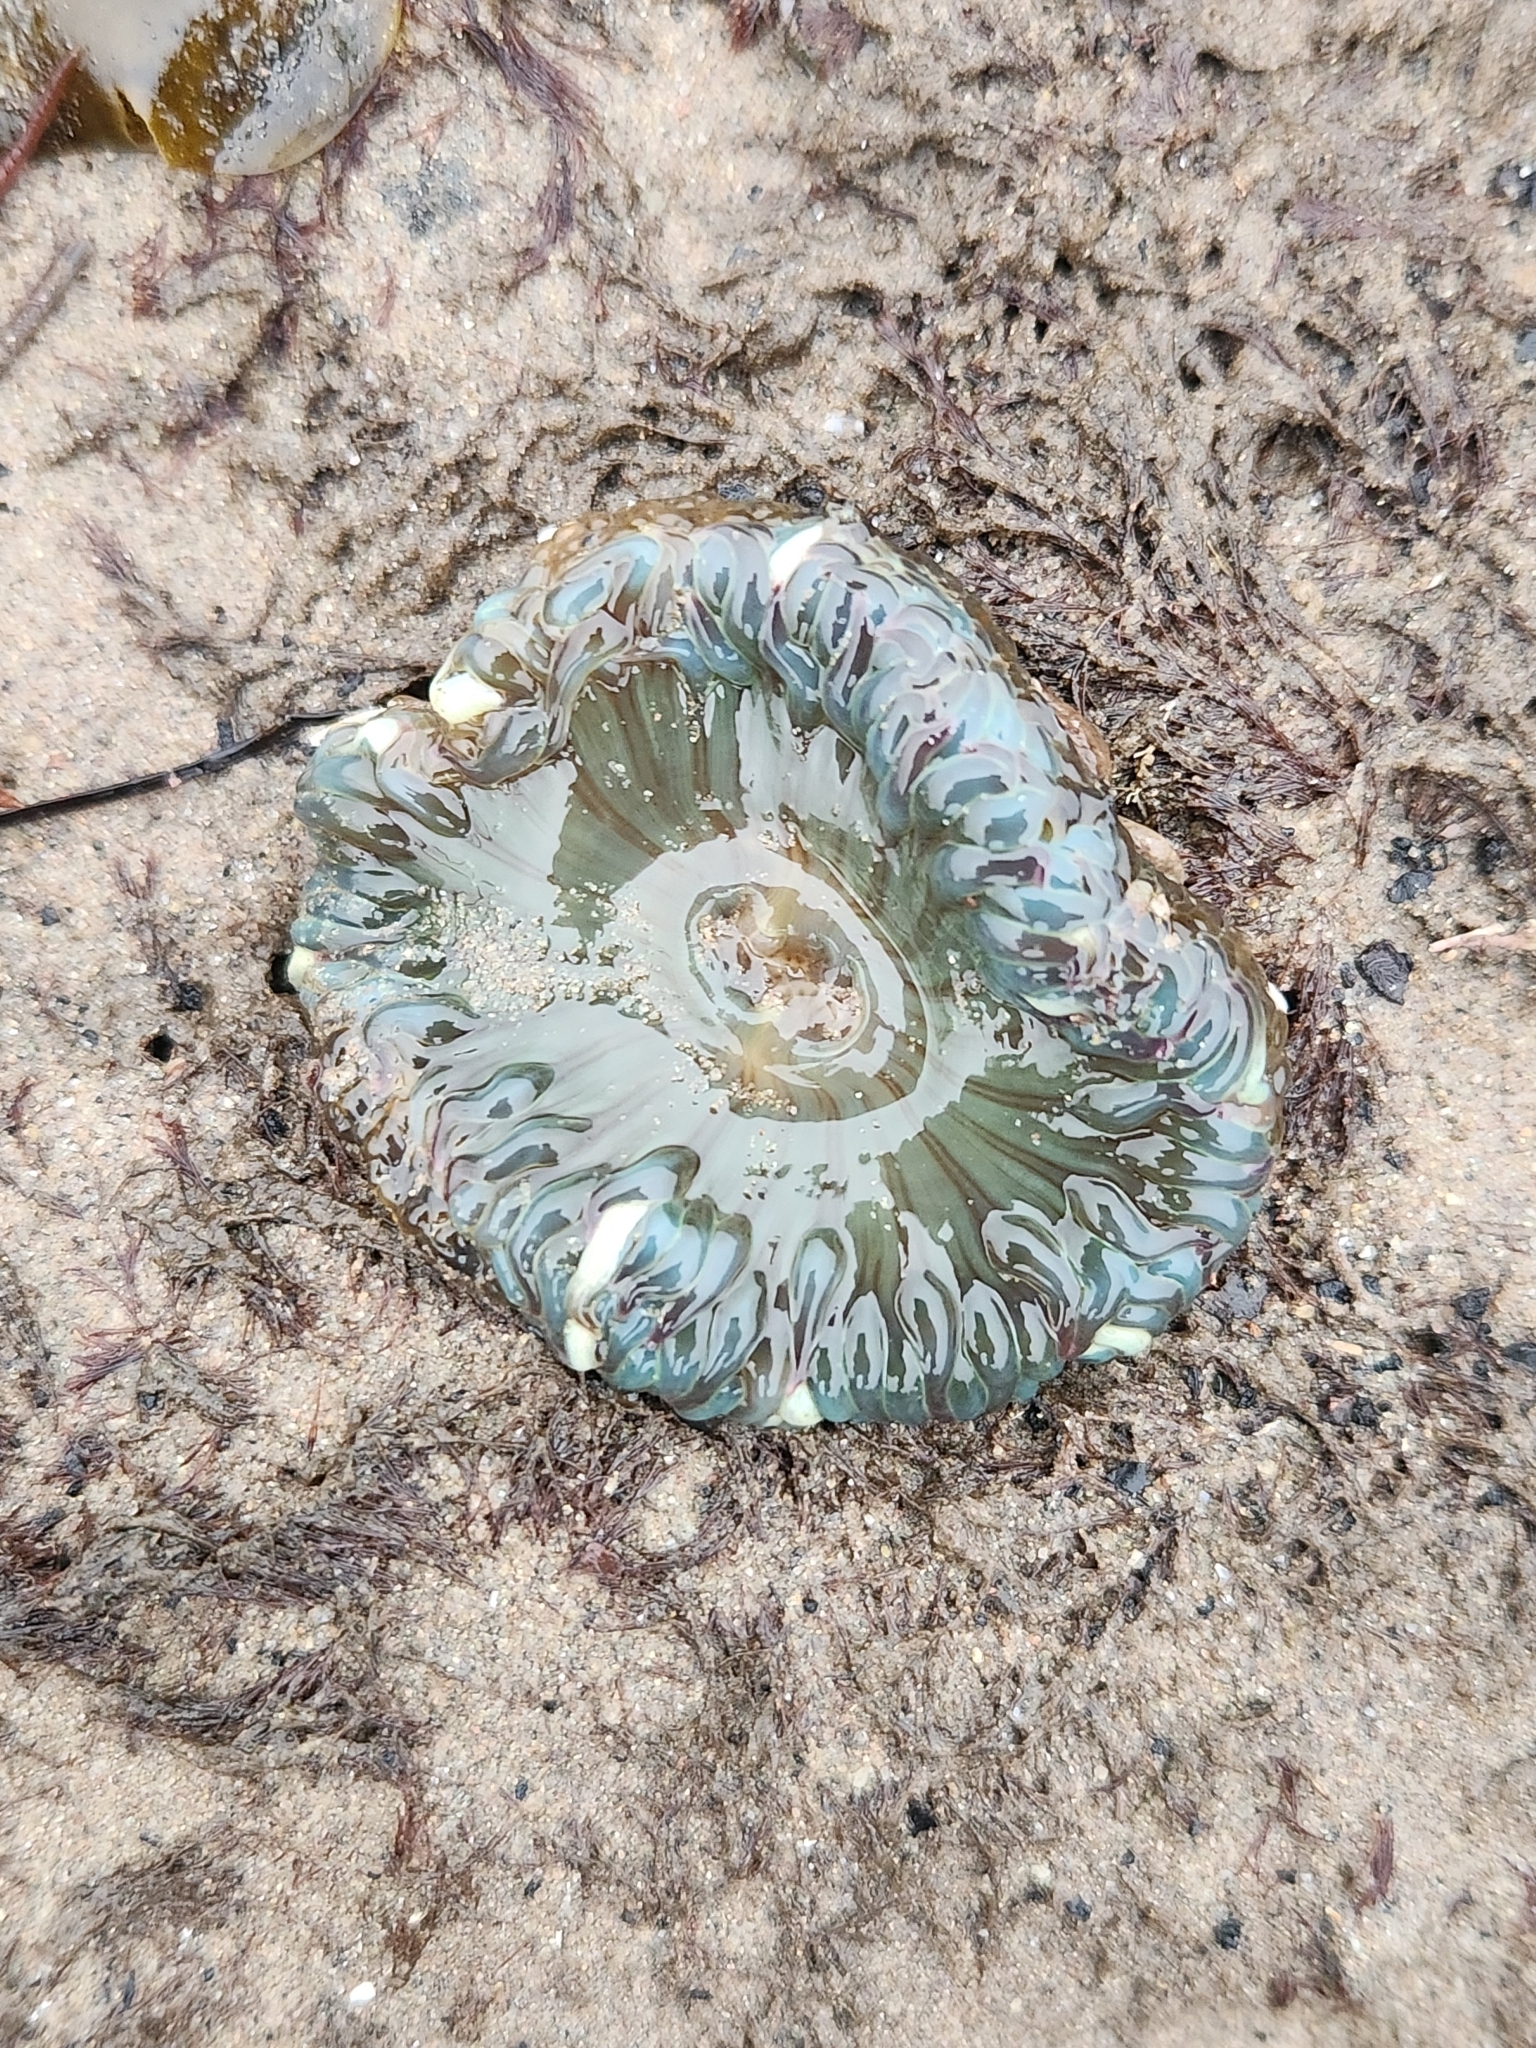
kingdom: Animalia
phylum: Cnidaria
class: Anthozoa
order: Actiniaria
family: Actiniidae
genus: Anthopleura
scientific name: Anthopleura sola
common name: Sun anemone
